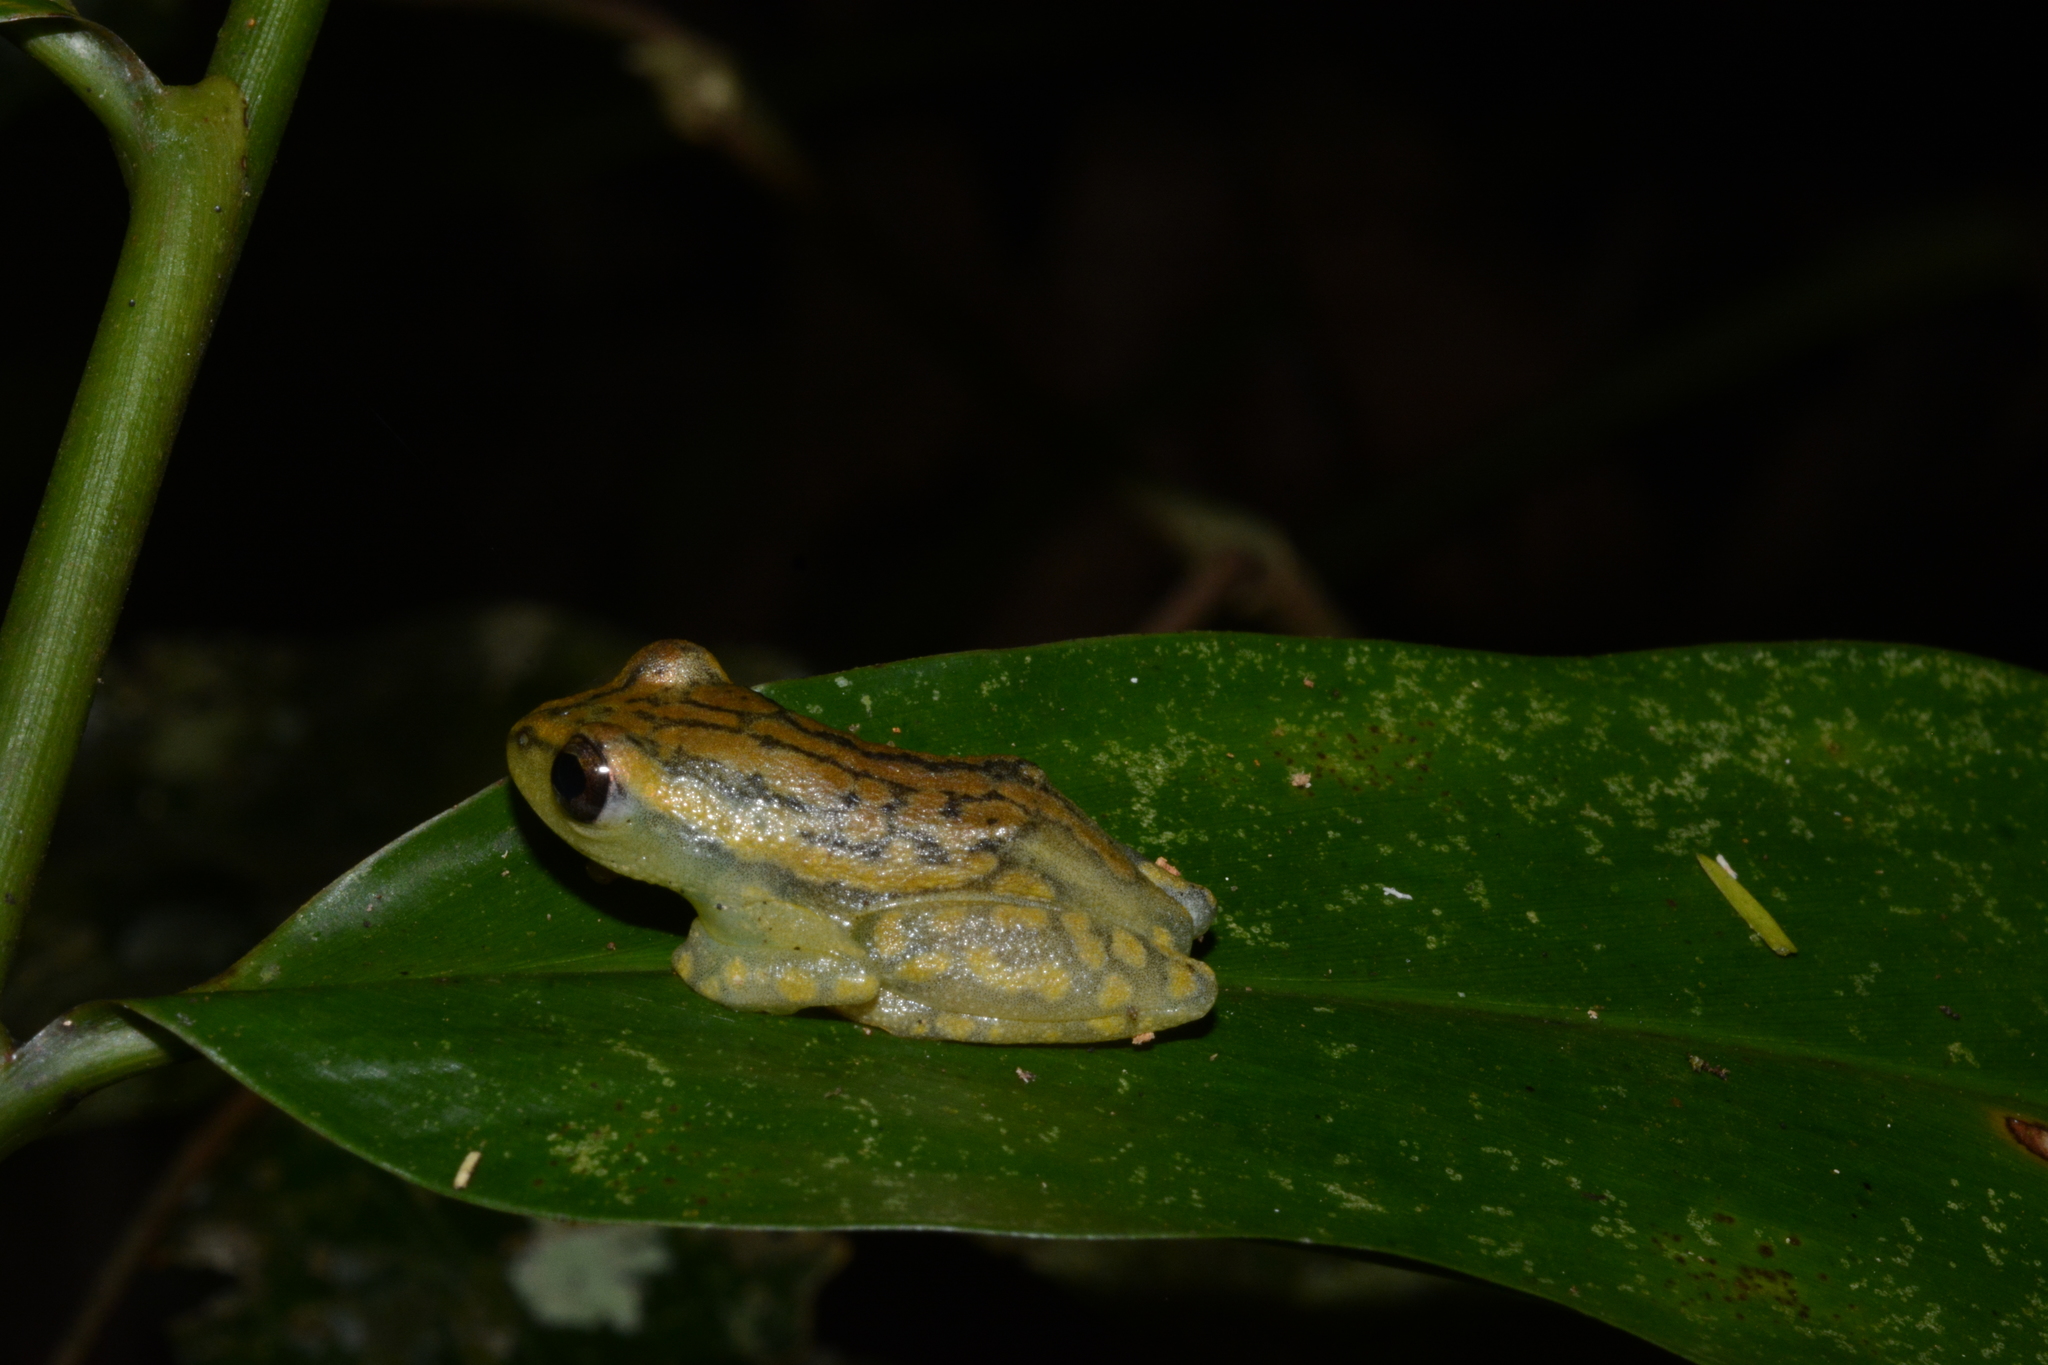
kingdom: Animalia
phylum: Chordata
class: Amphibia
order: Anura
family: Hyperoliidae
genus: Hyperolius
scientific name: Hyperolius substriatus
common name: Spotted reed frog
